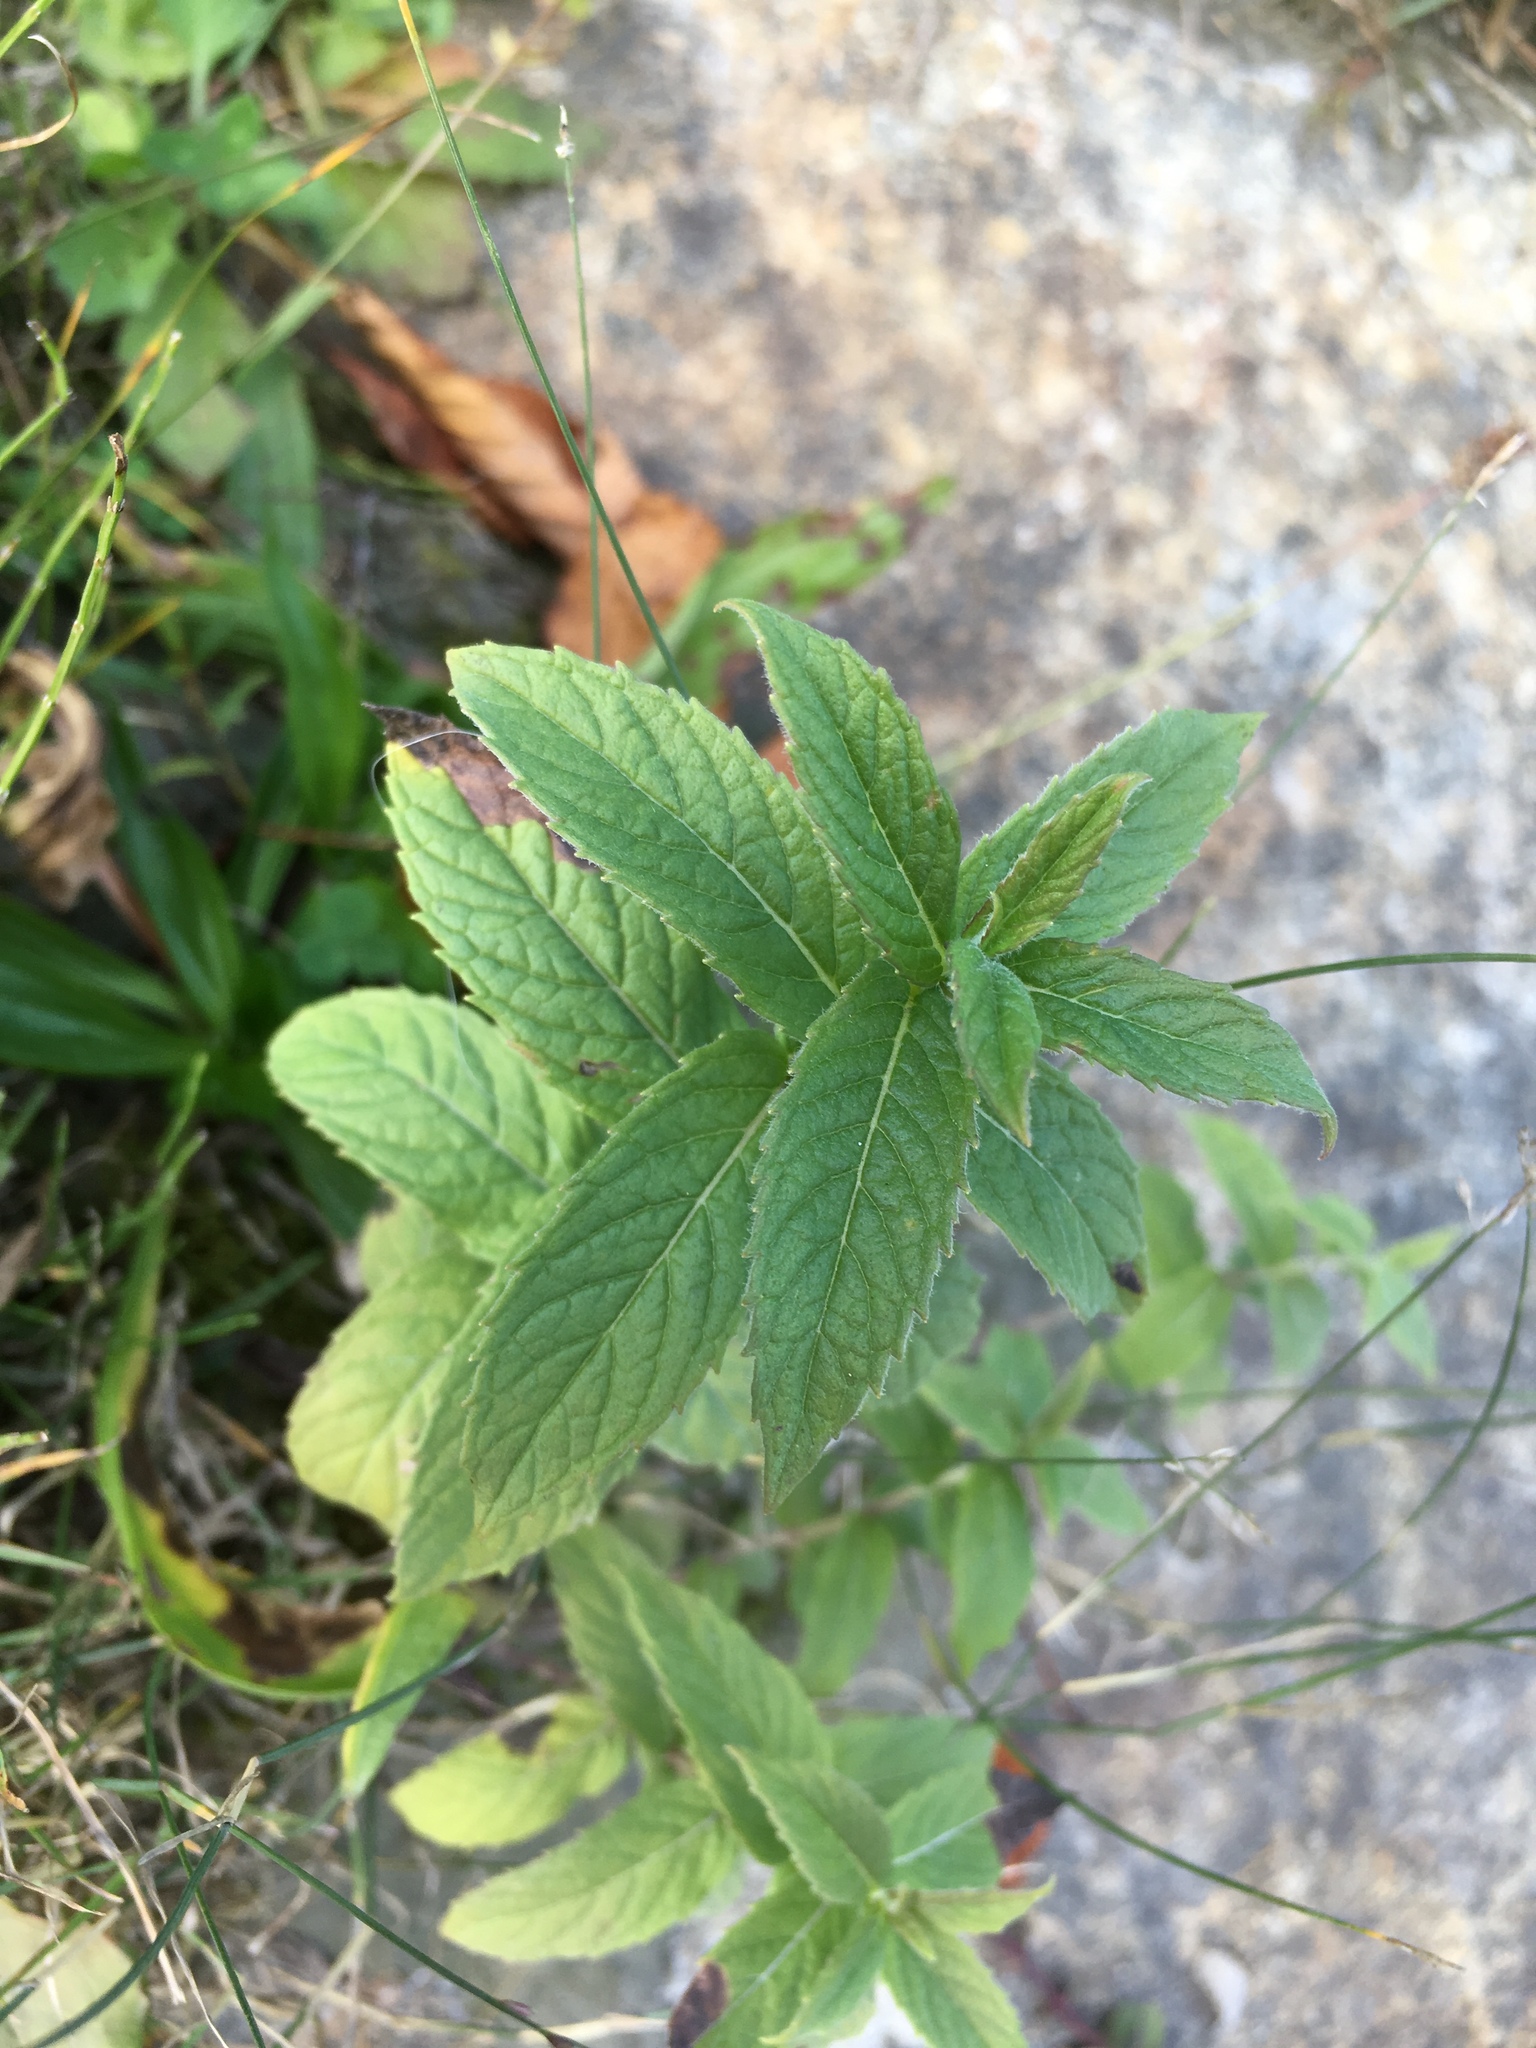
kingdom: Plantae
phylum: Tracheophyta
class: Magnoliopsida
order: Lamiales
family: Lamiaceae
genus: Mentha
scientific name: Mentha longifolia
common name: Horse mint
